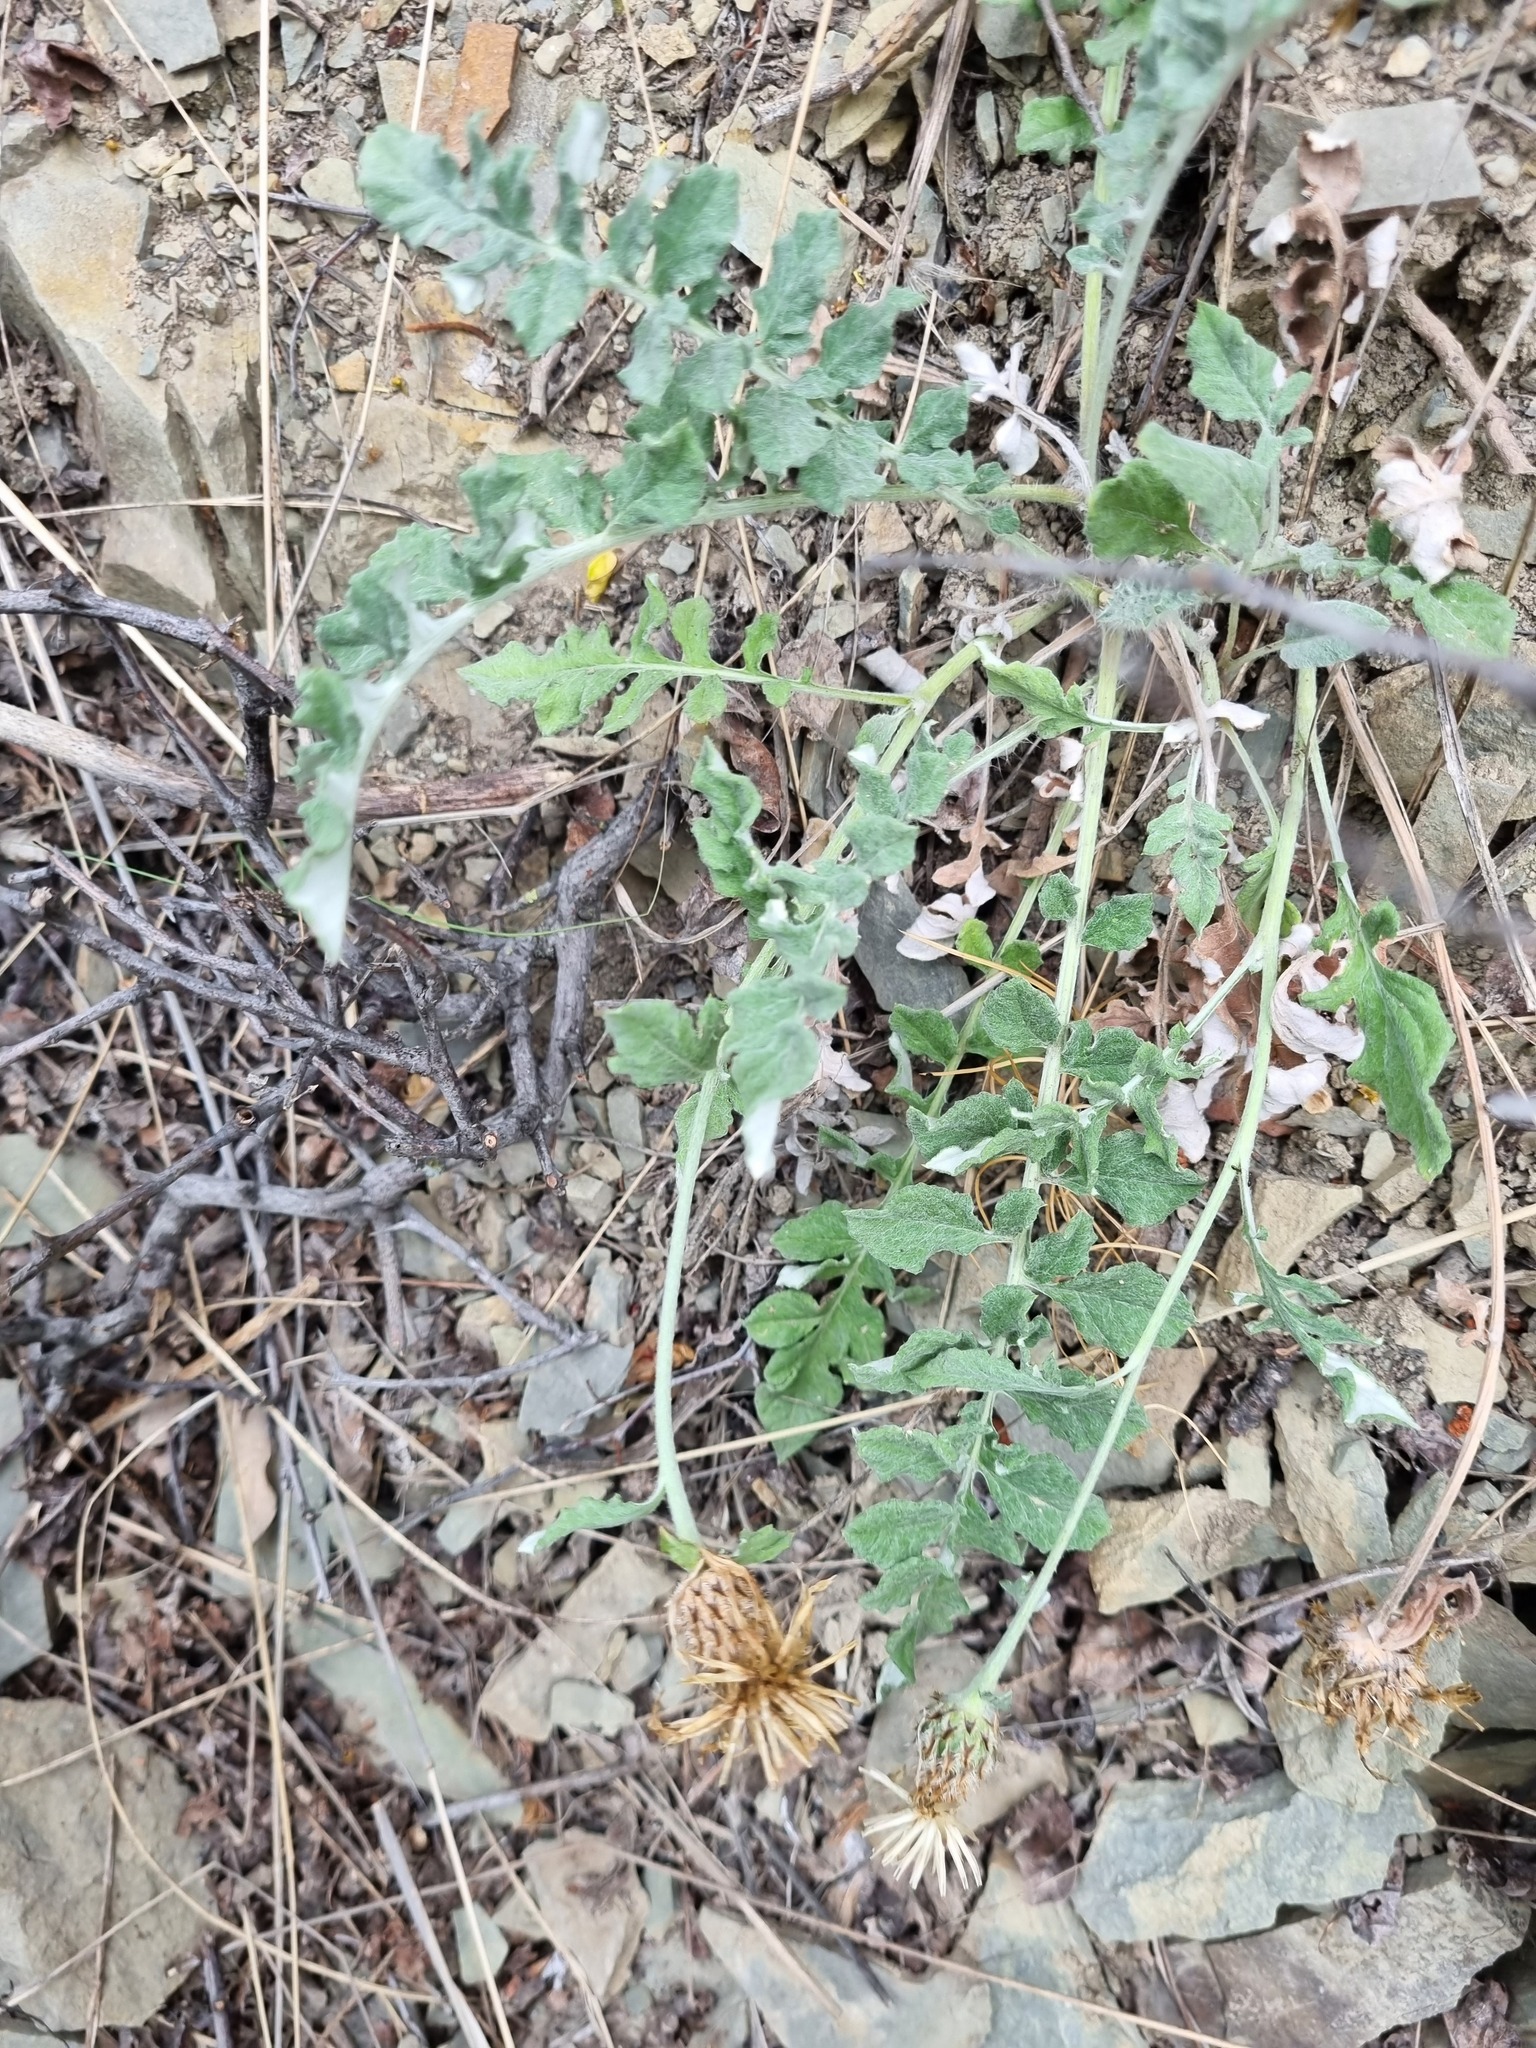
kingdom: Plantae
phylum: Tracheophyta
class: Magnoliopsida
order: Asterales
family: Asteraceae
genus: Psephellus
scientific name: Psephellus declinatus
